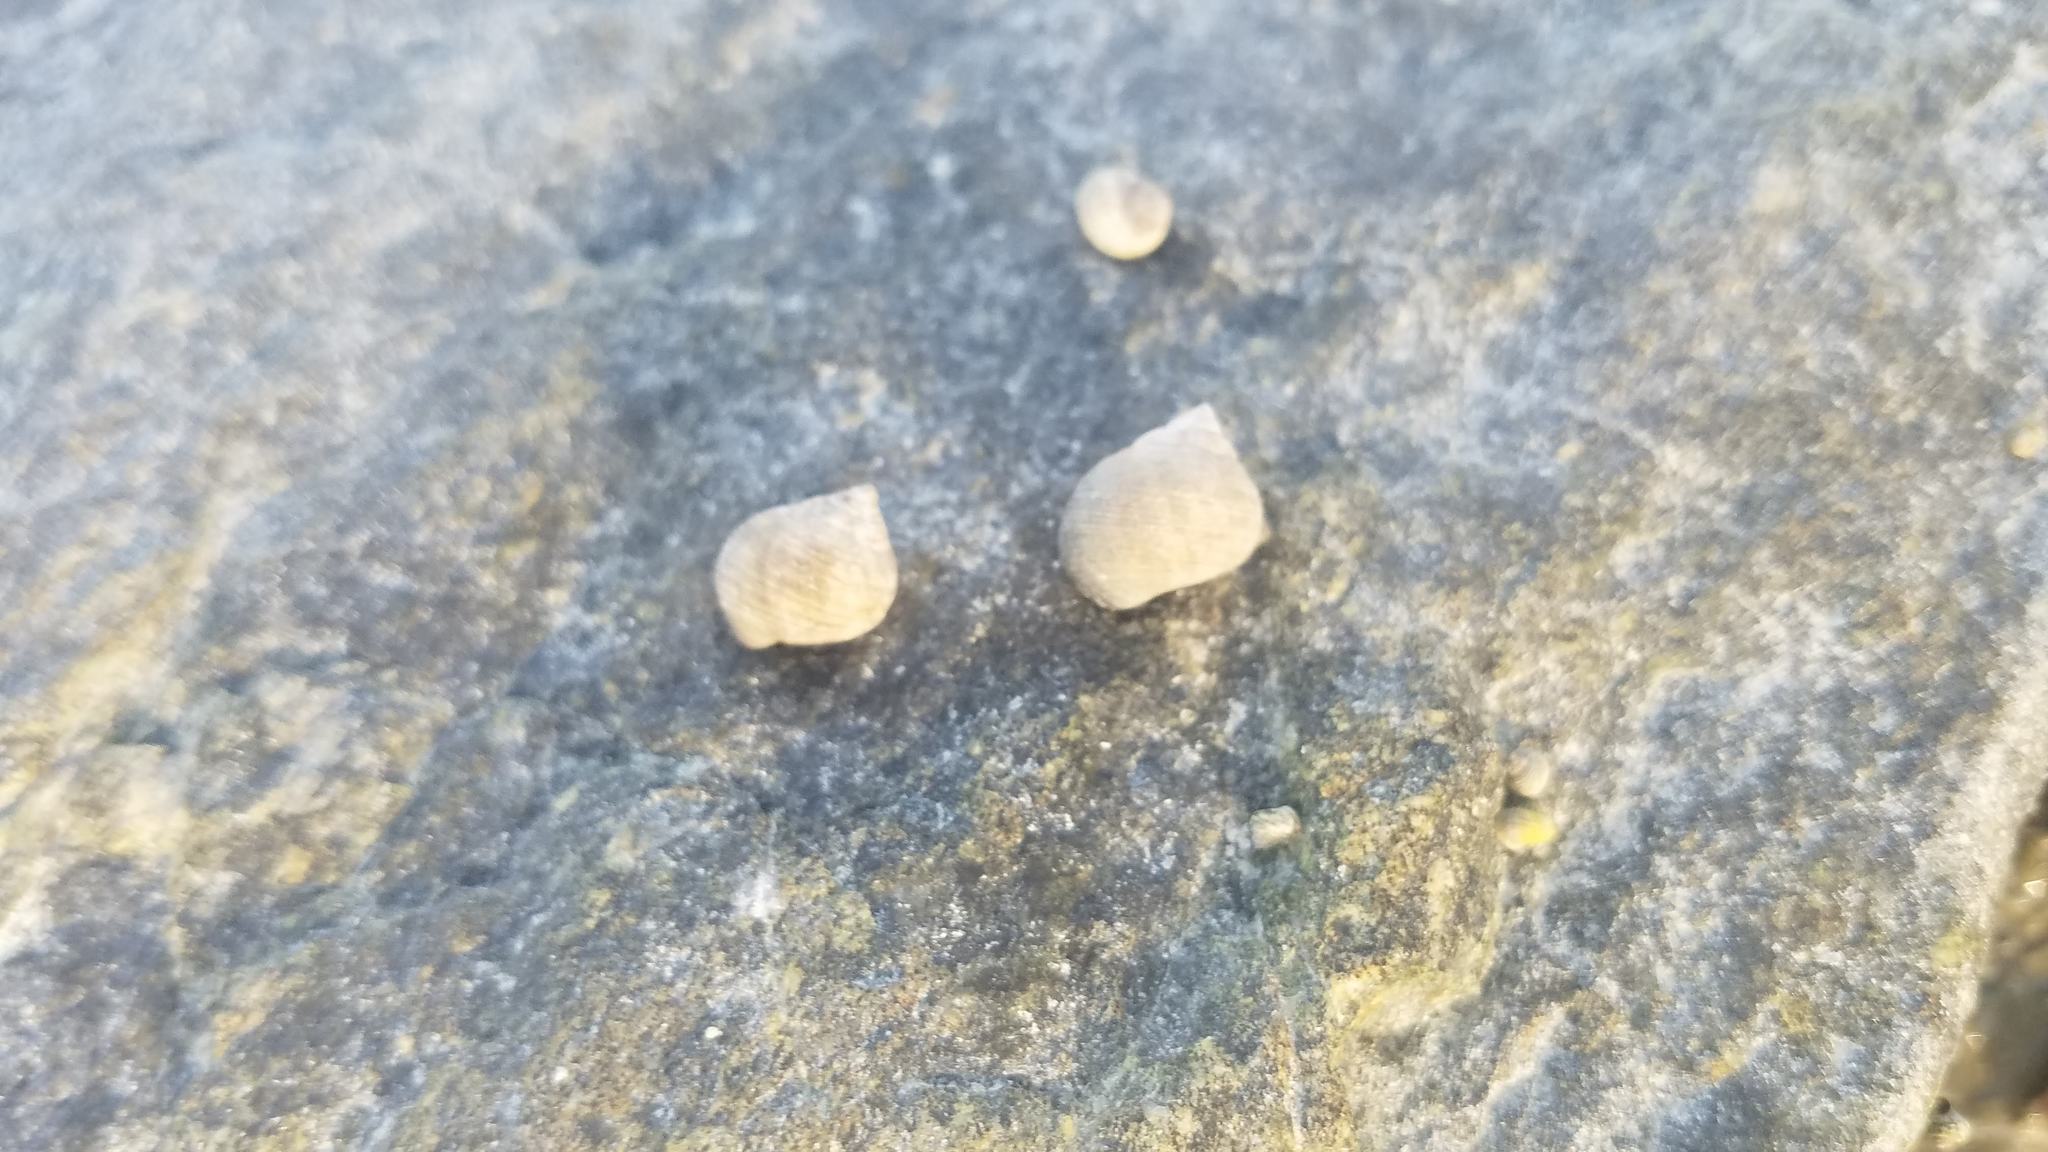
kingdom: Animalia
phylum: Mollusca
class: Gastropoda
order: Littorinimorpha
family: Littorinidae
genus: Littorina
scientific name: Littorina littorea
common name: Common periwinkle
